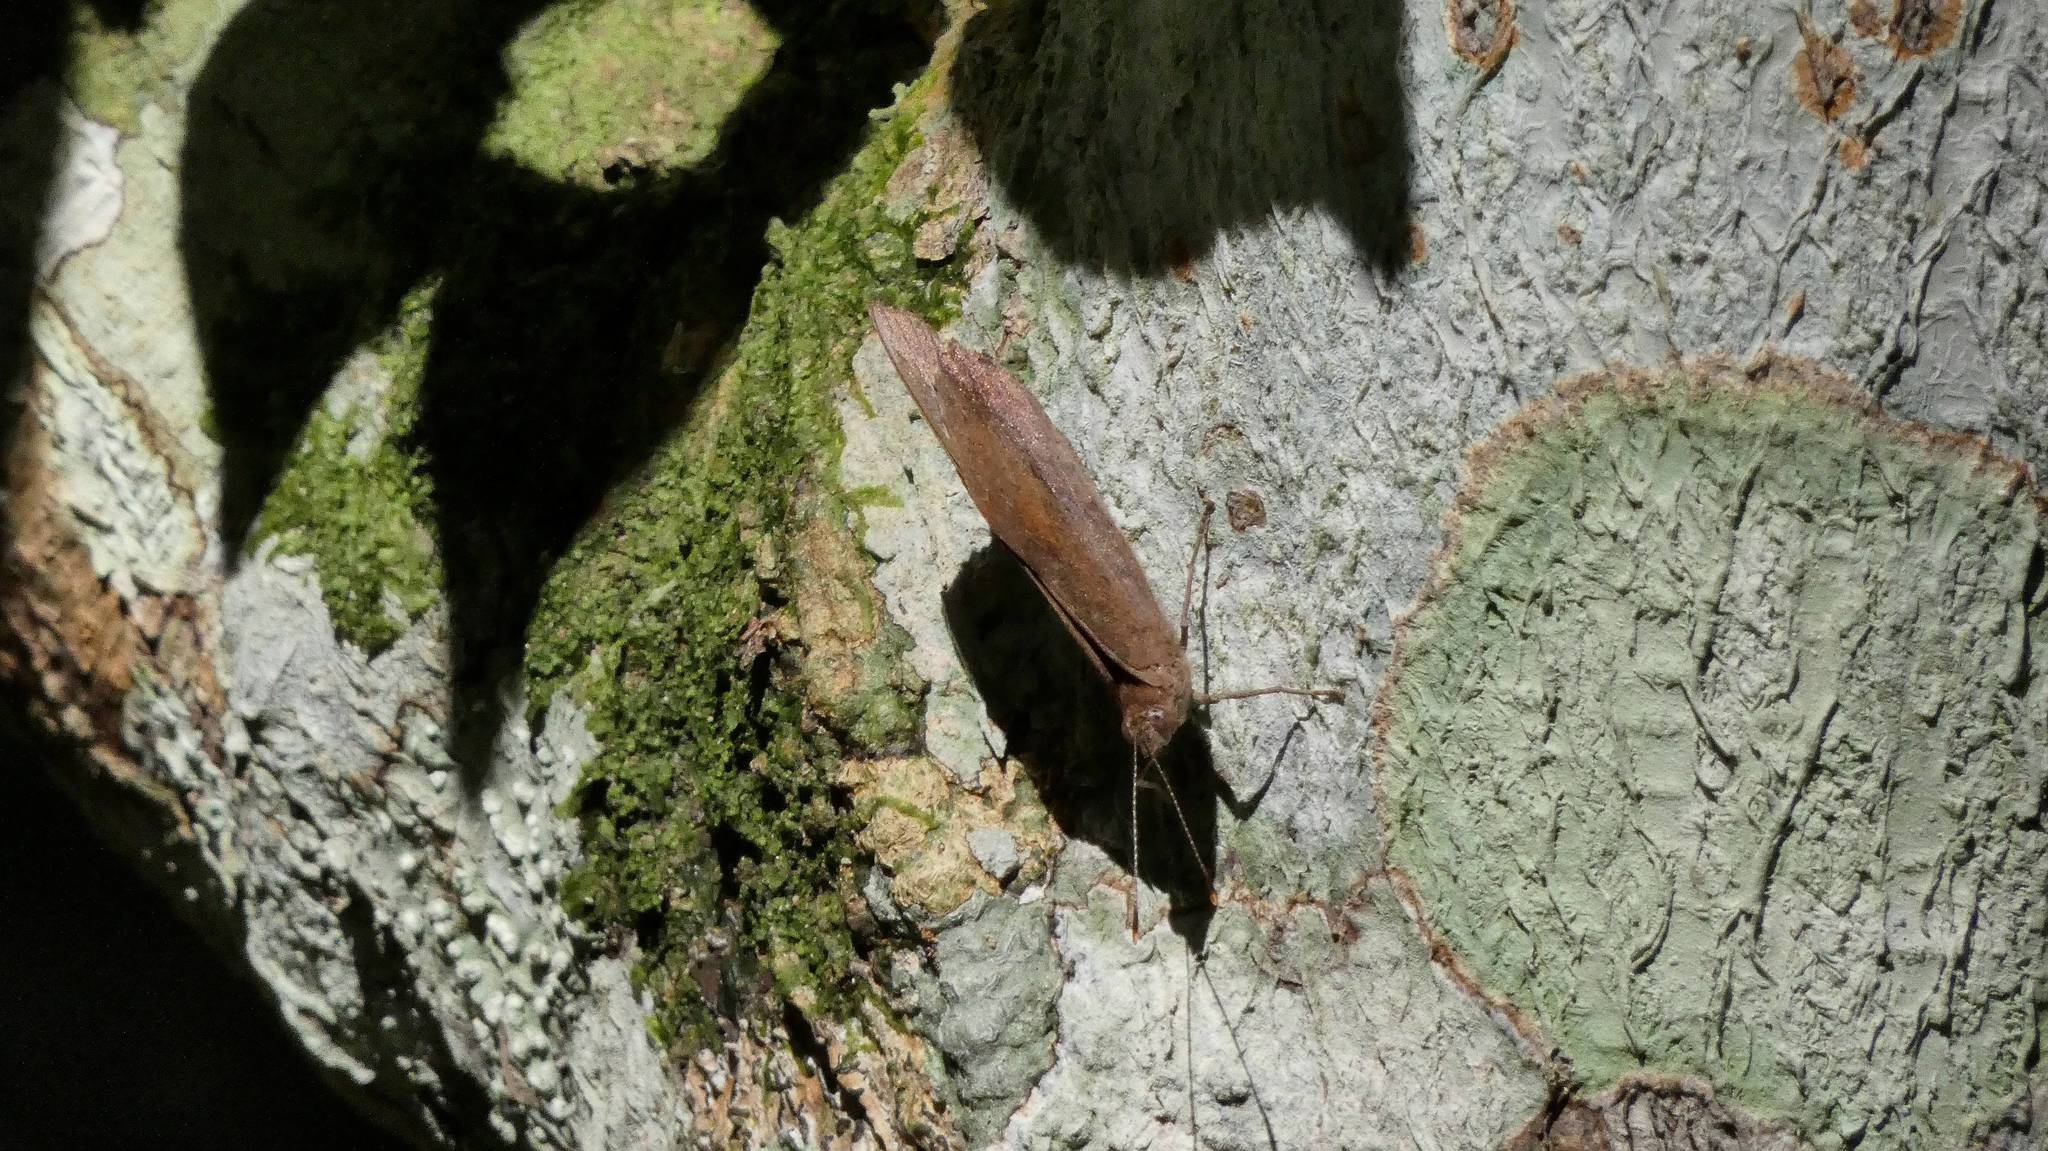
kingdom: Animalia
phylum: Arthropoda
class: Insecta
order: Lepidoptera
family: Nymphalidae
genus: Eunica
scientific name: Eunica monima
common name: Dingy purplewing
